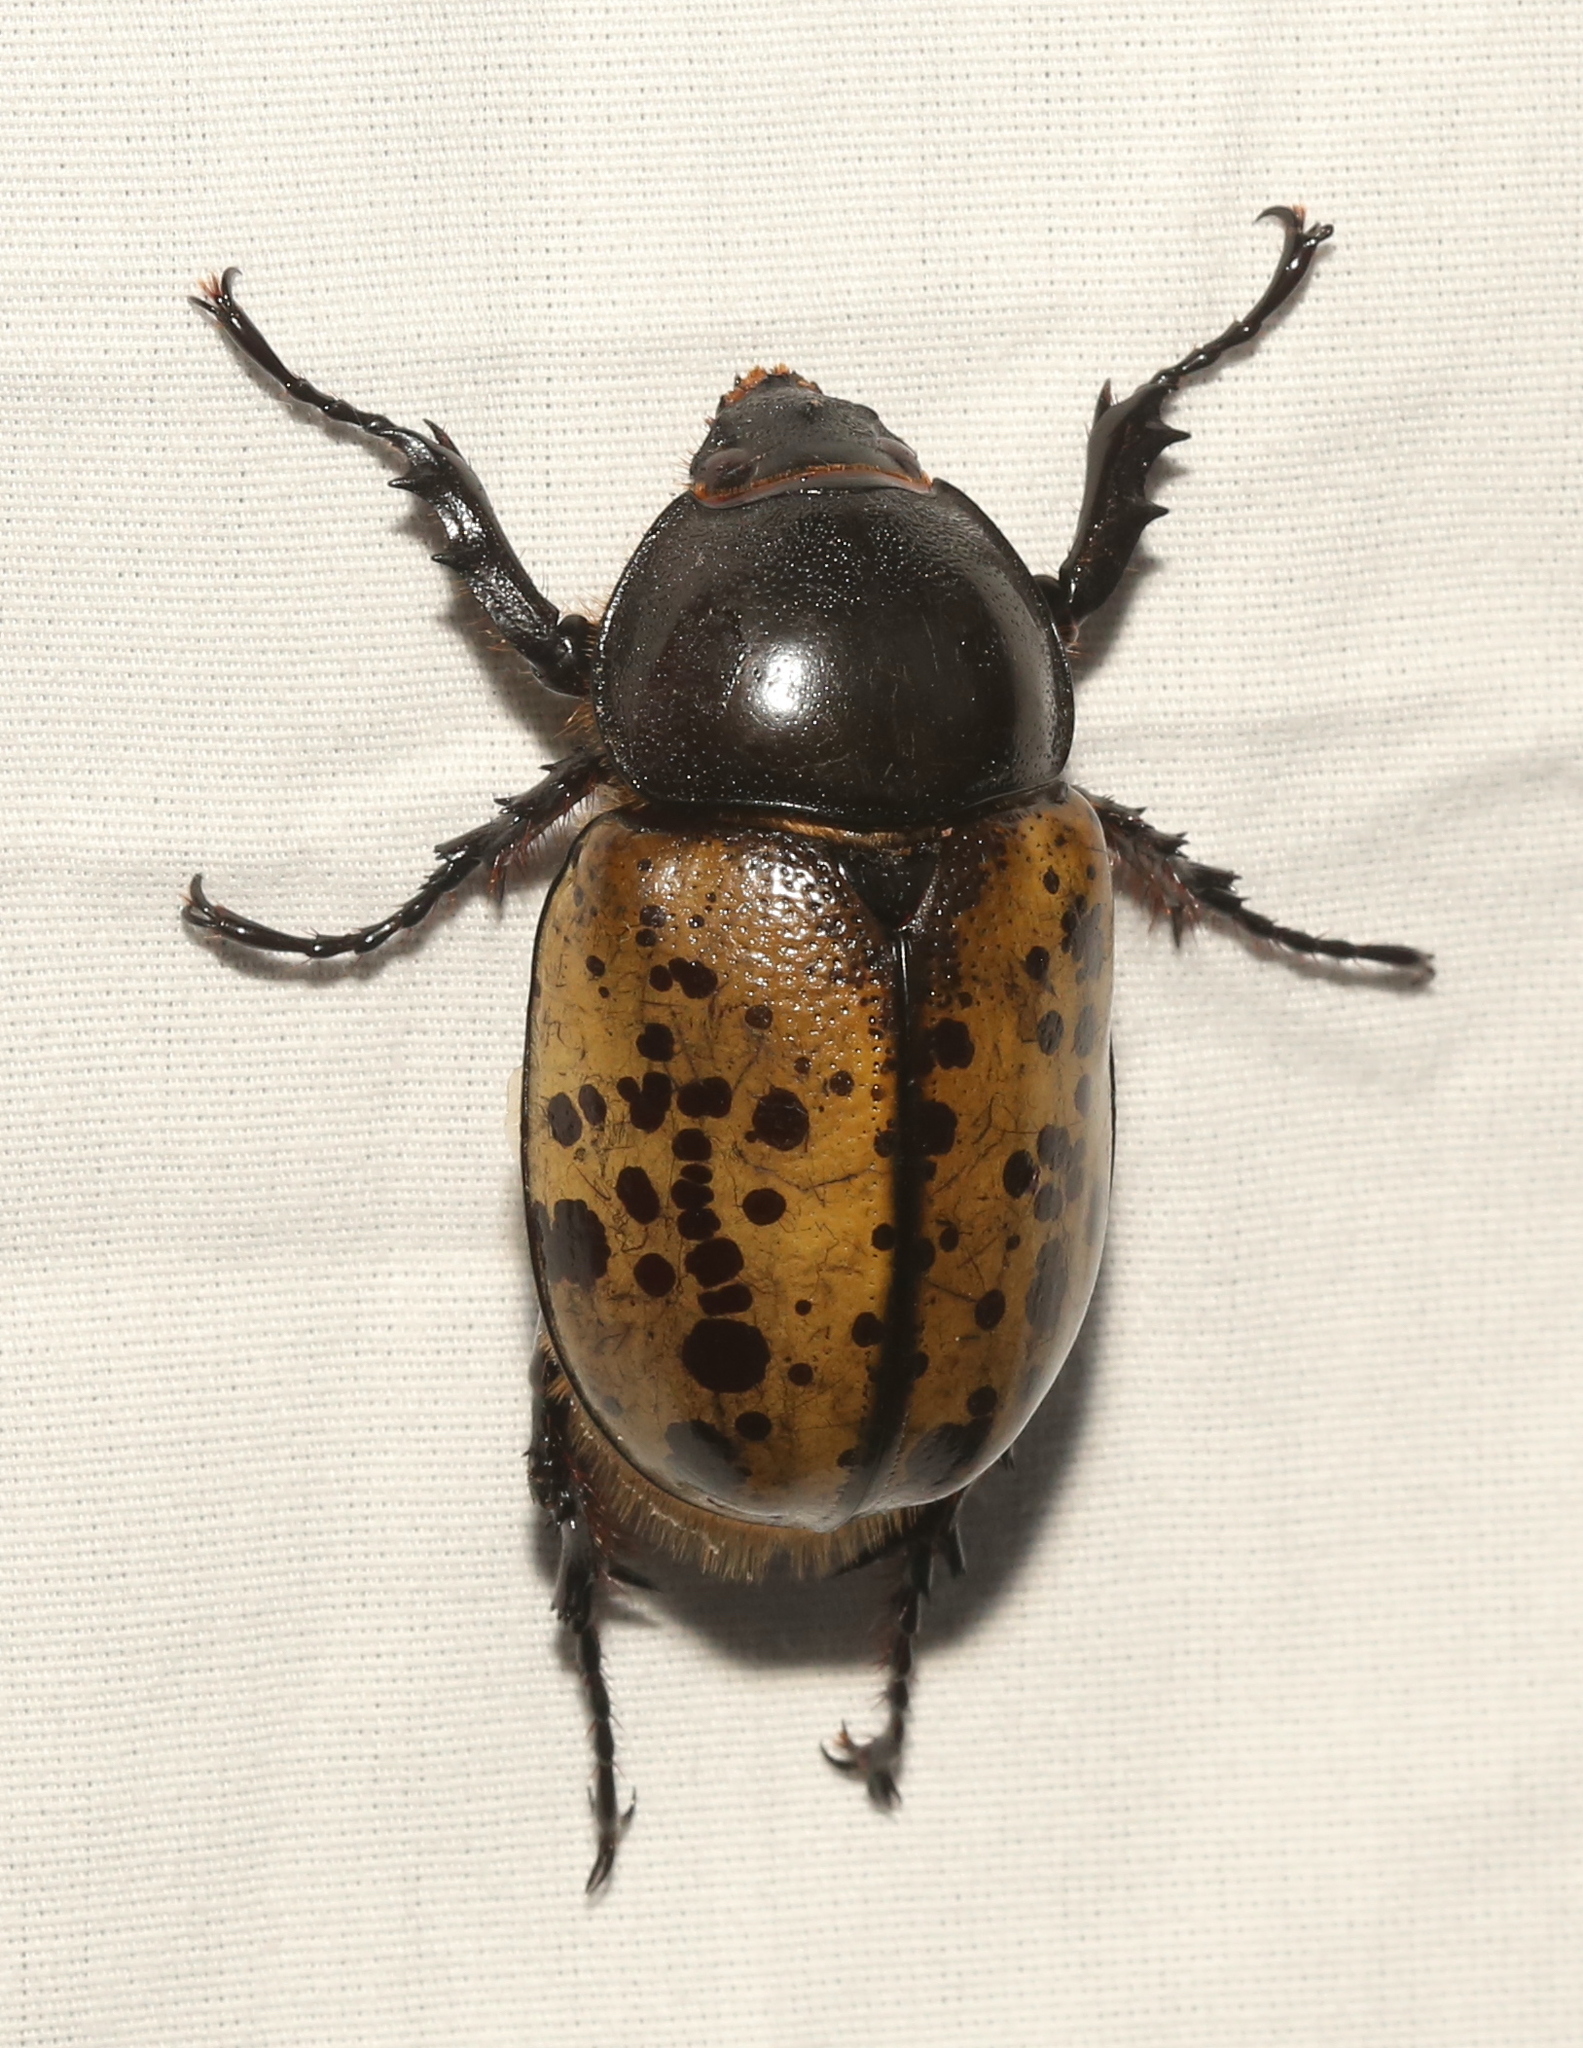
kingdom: Animalia
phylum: Arthropoda
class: Insecta
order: Coleoptera
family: Scarabaeidae
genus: Dynastes
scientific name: Dynastes tityus
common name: Eastern hercules beetle
